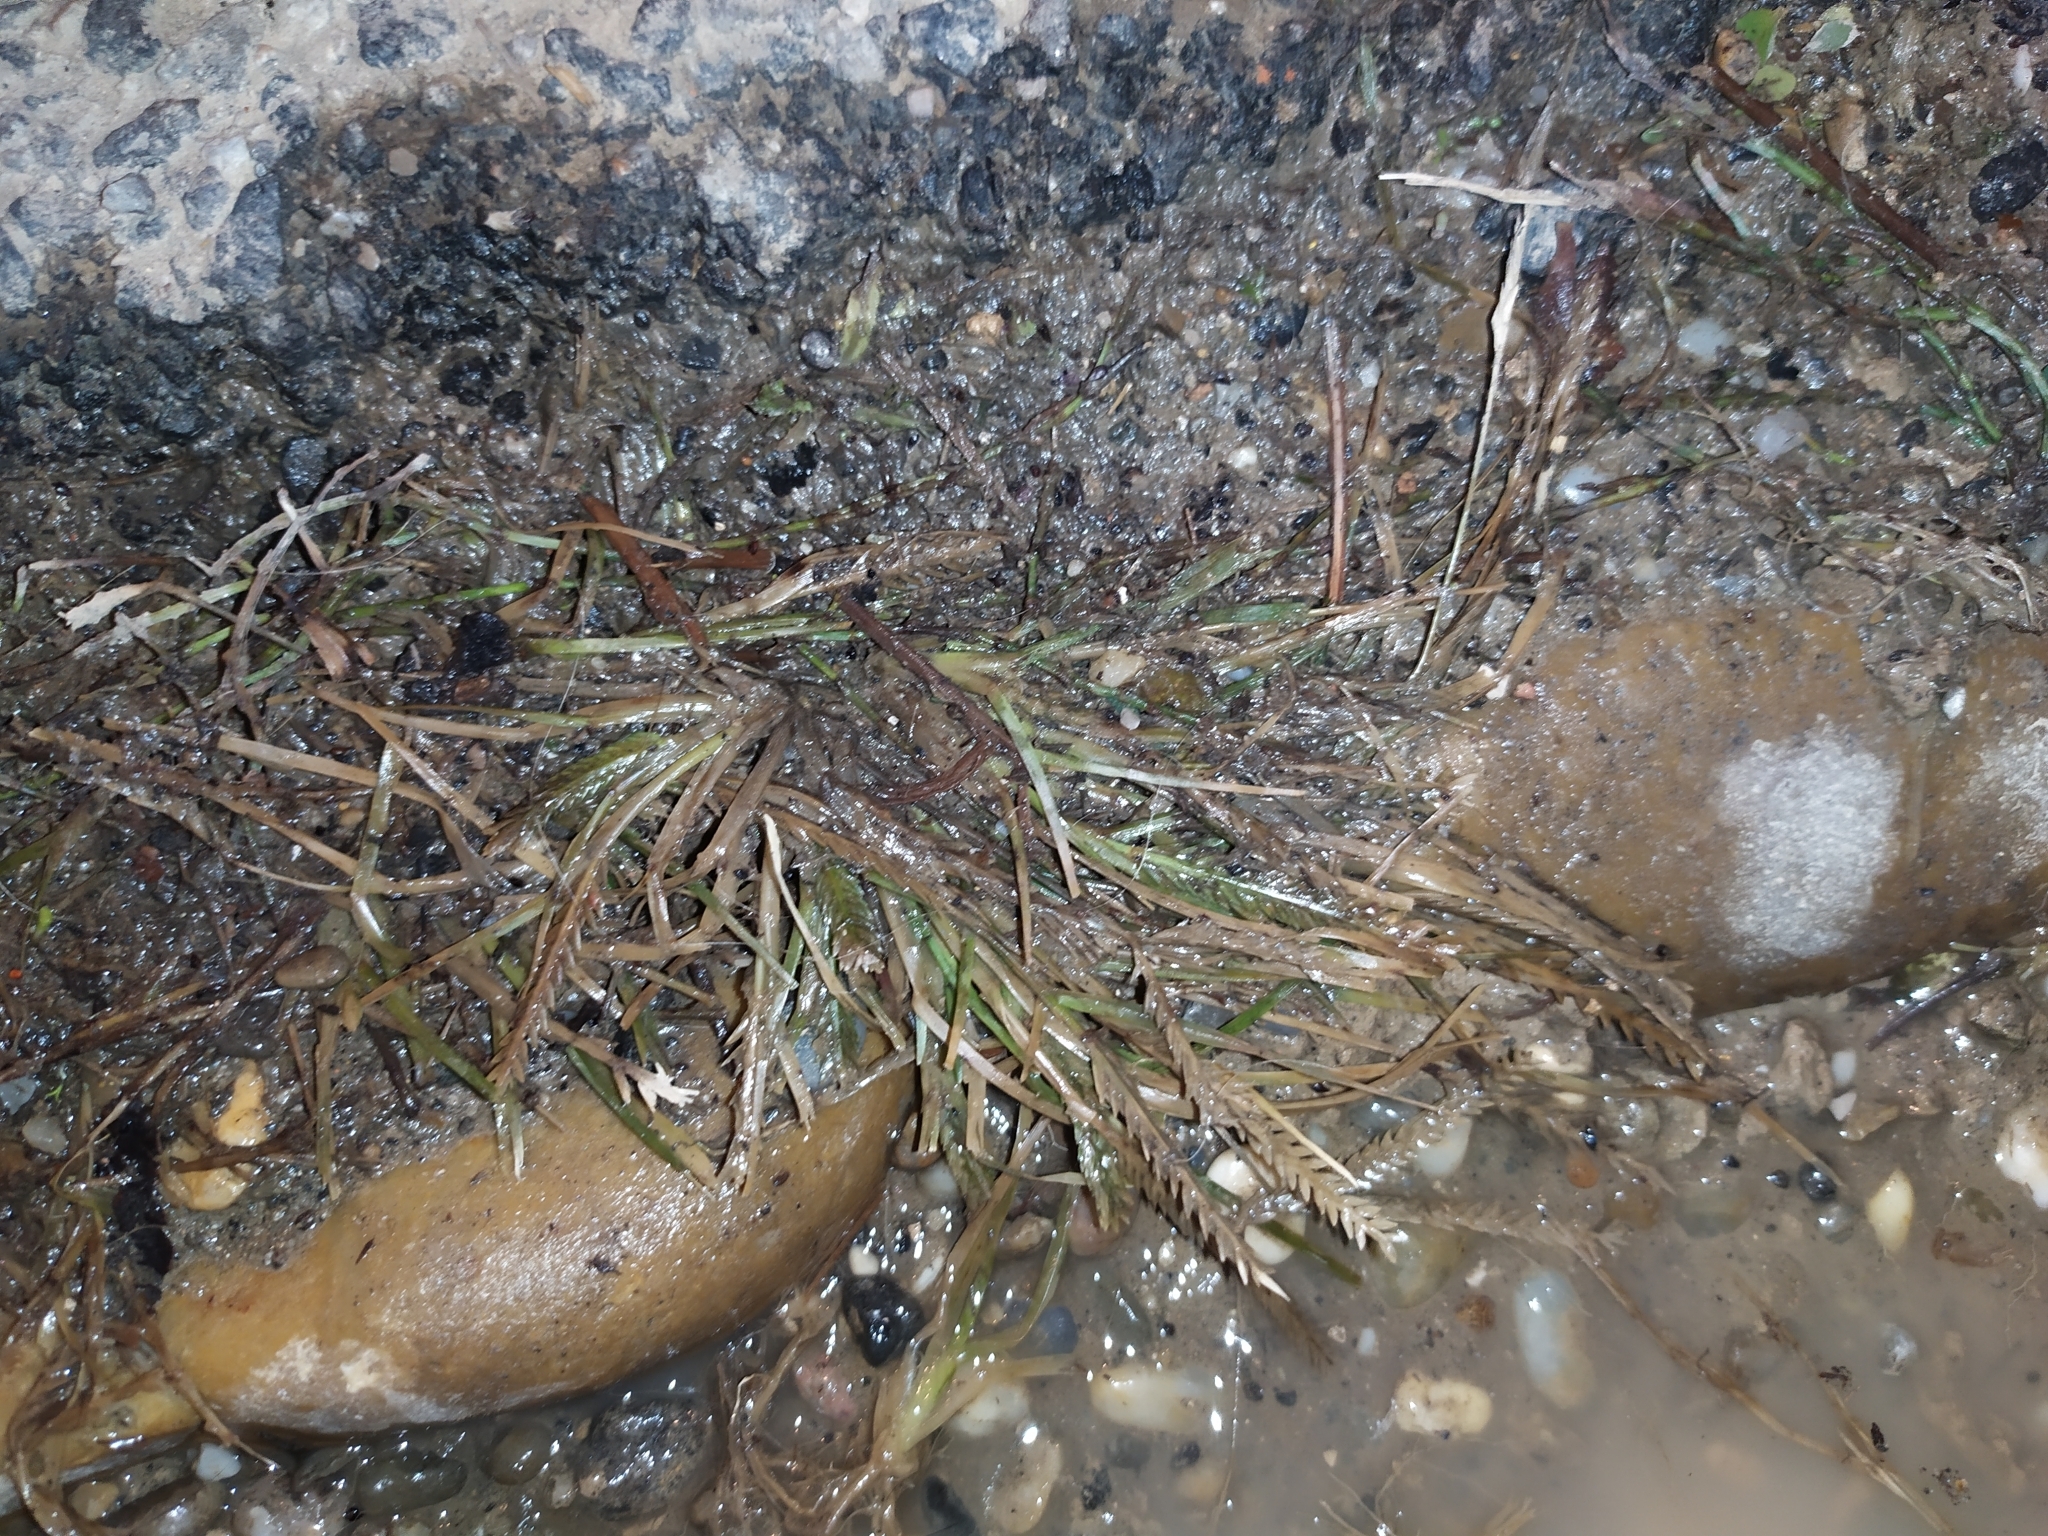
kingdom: Plantae
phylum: Tracheophyta
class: Liliopsida
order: Poales
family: Poaceae
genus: Eleusine
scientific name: Eleusine indica
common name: Yard-grass
